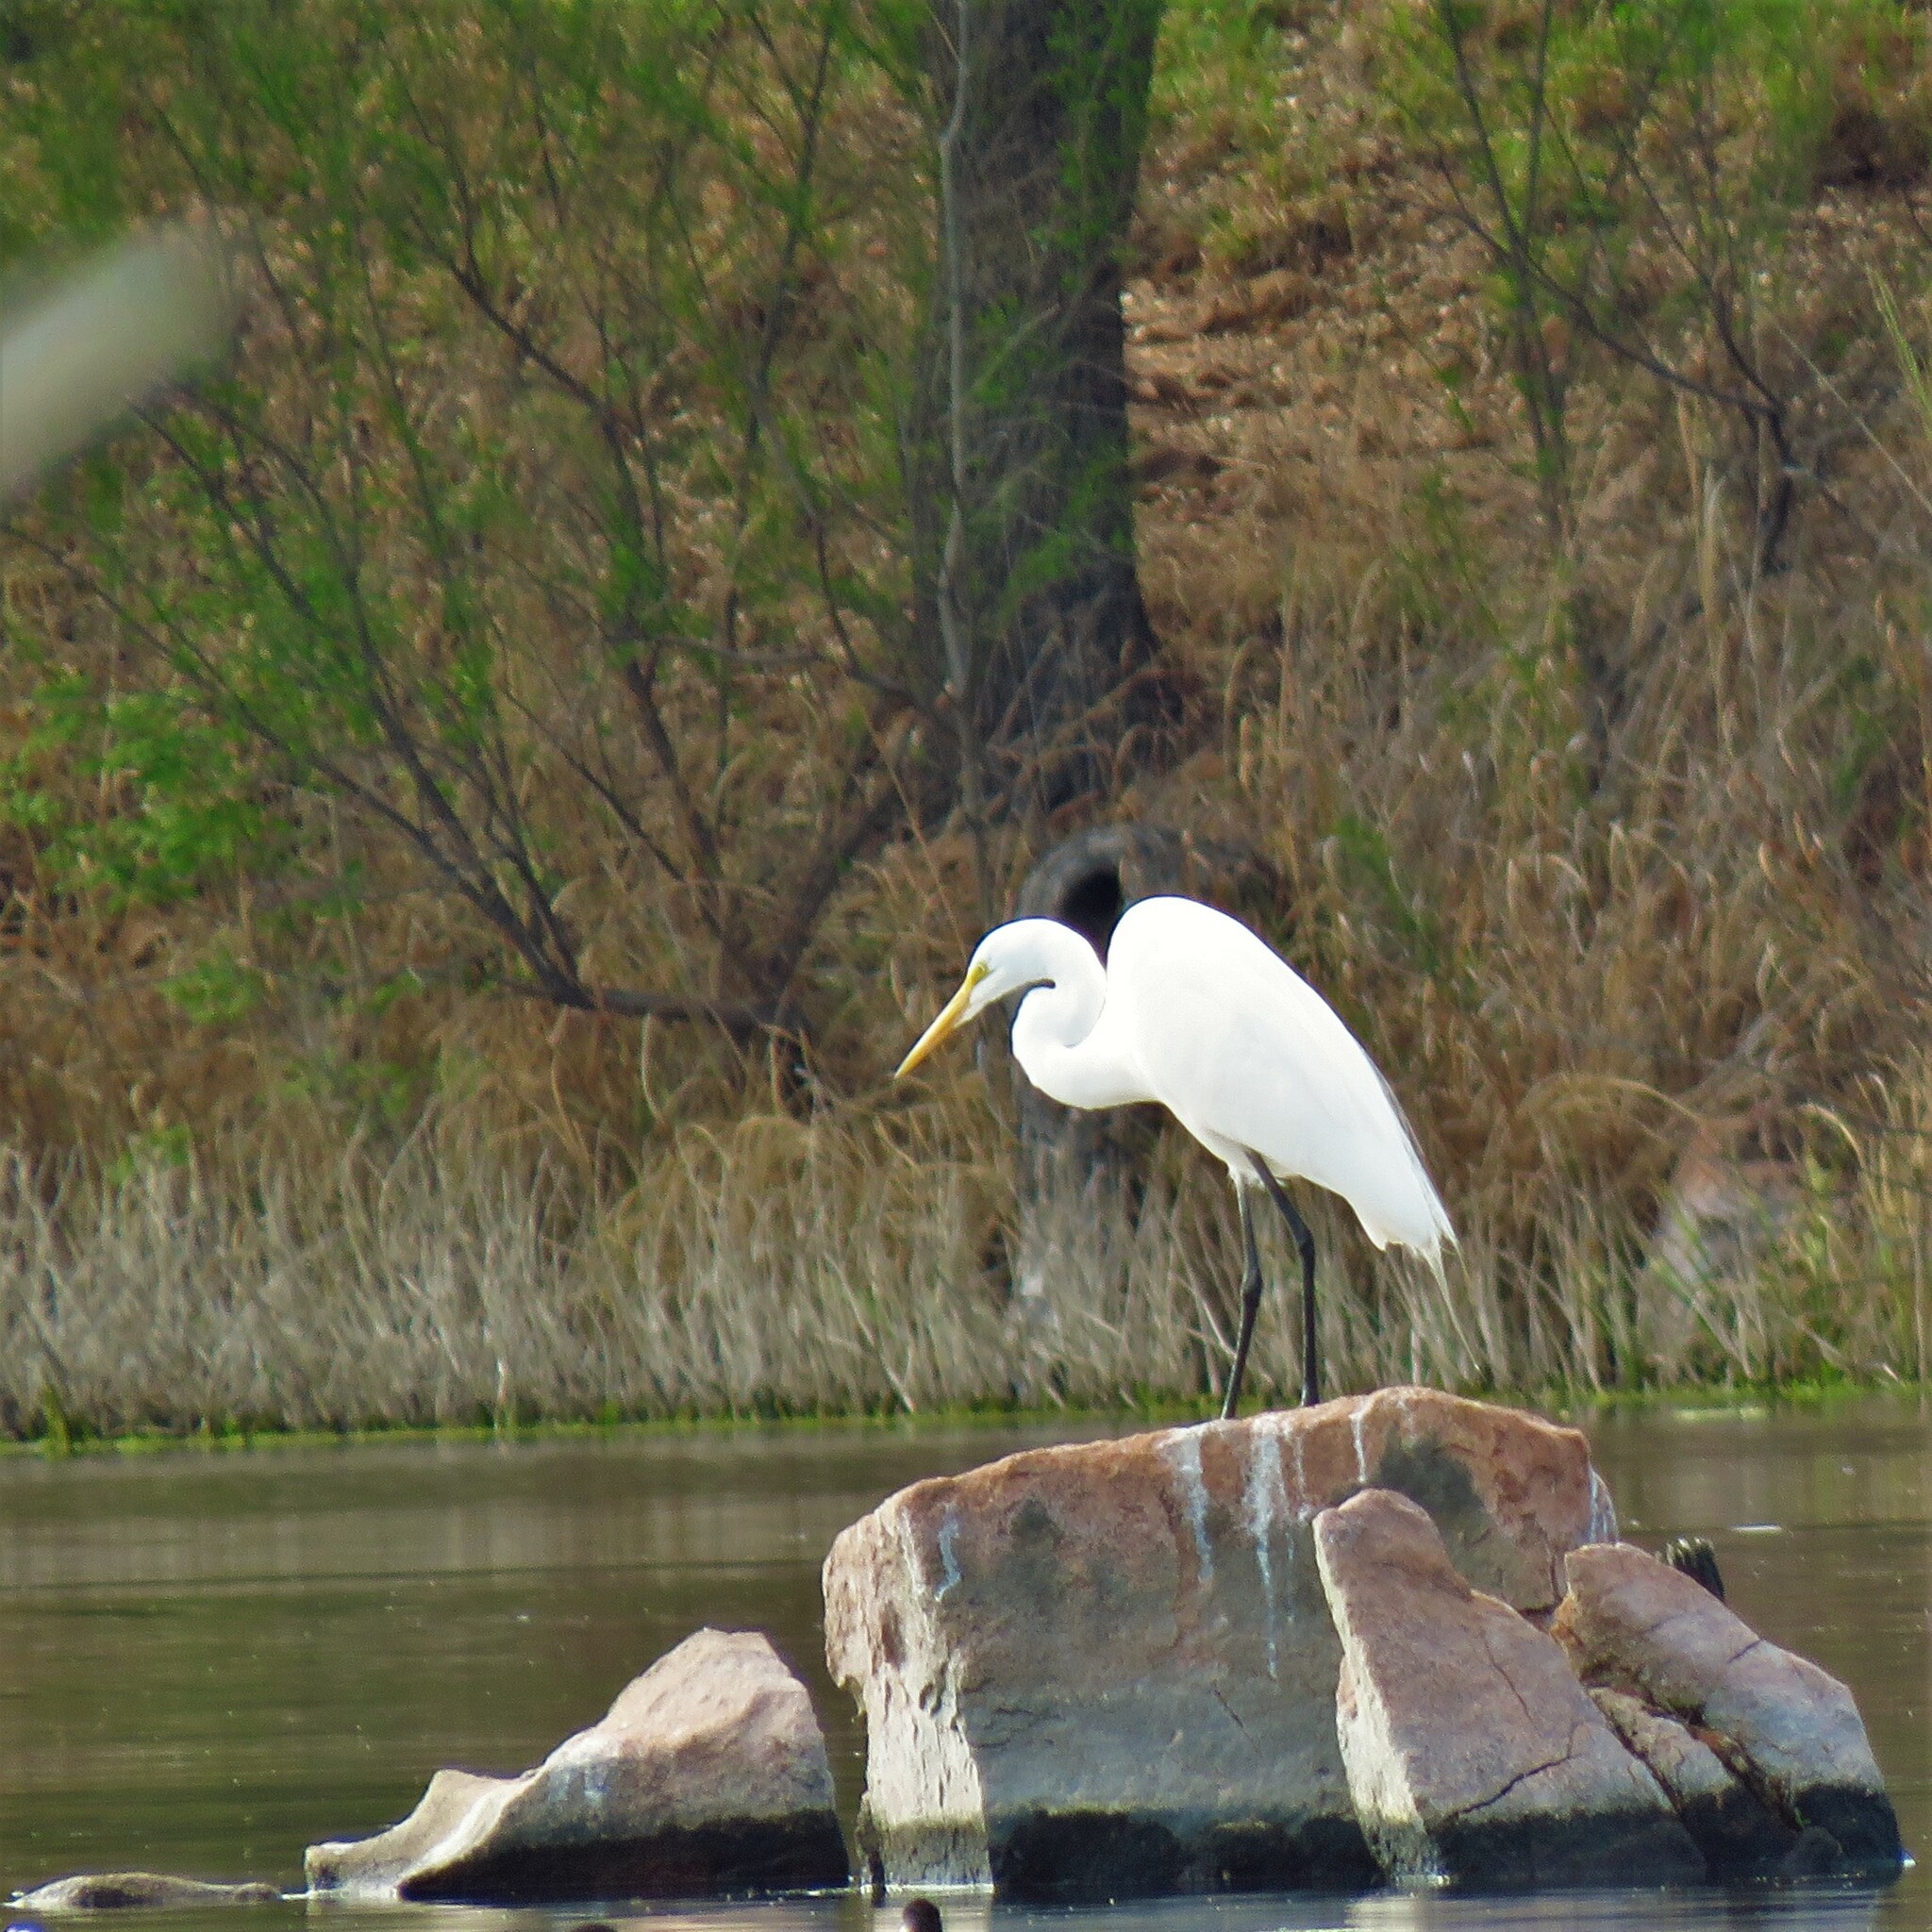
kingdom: Animalia
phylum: Chordata
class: Aves
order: Pelecaniformes
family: Ardeidae
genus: Ardea
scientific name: Ardea alba
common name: Great egret
